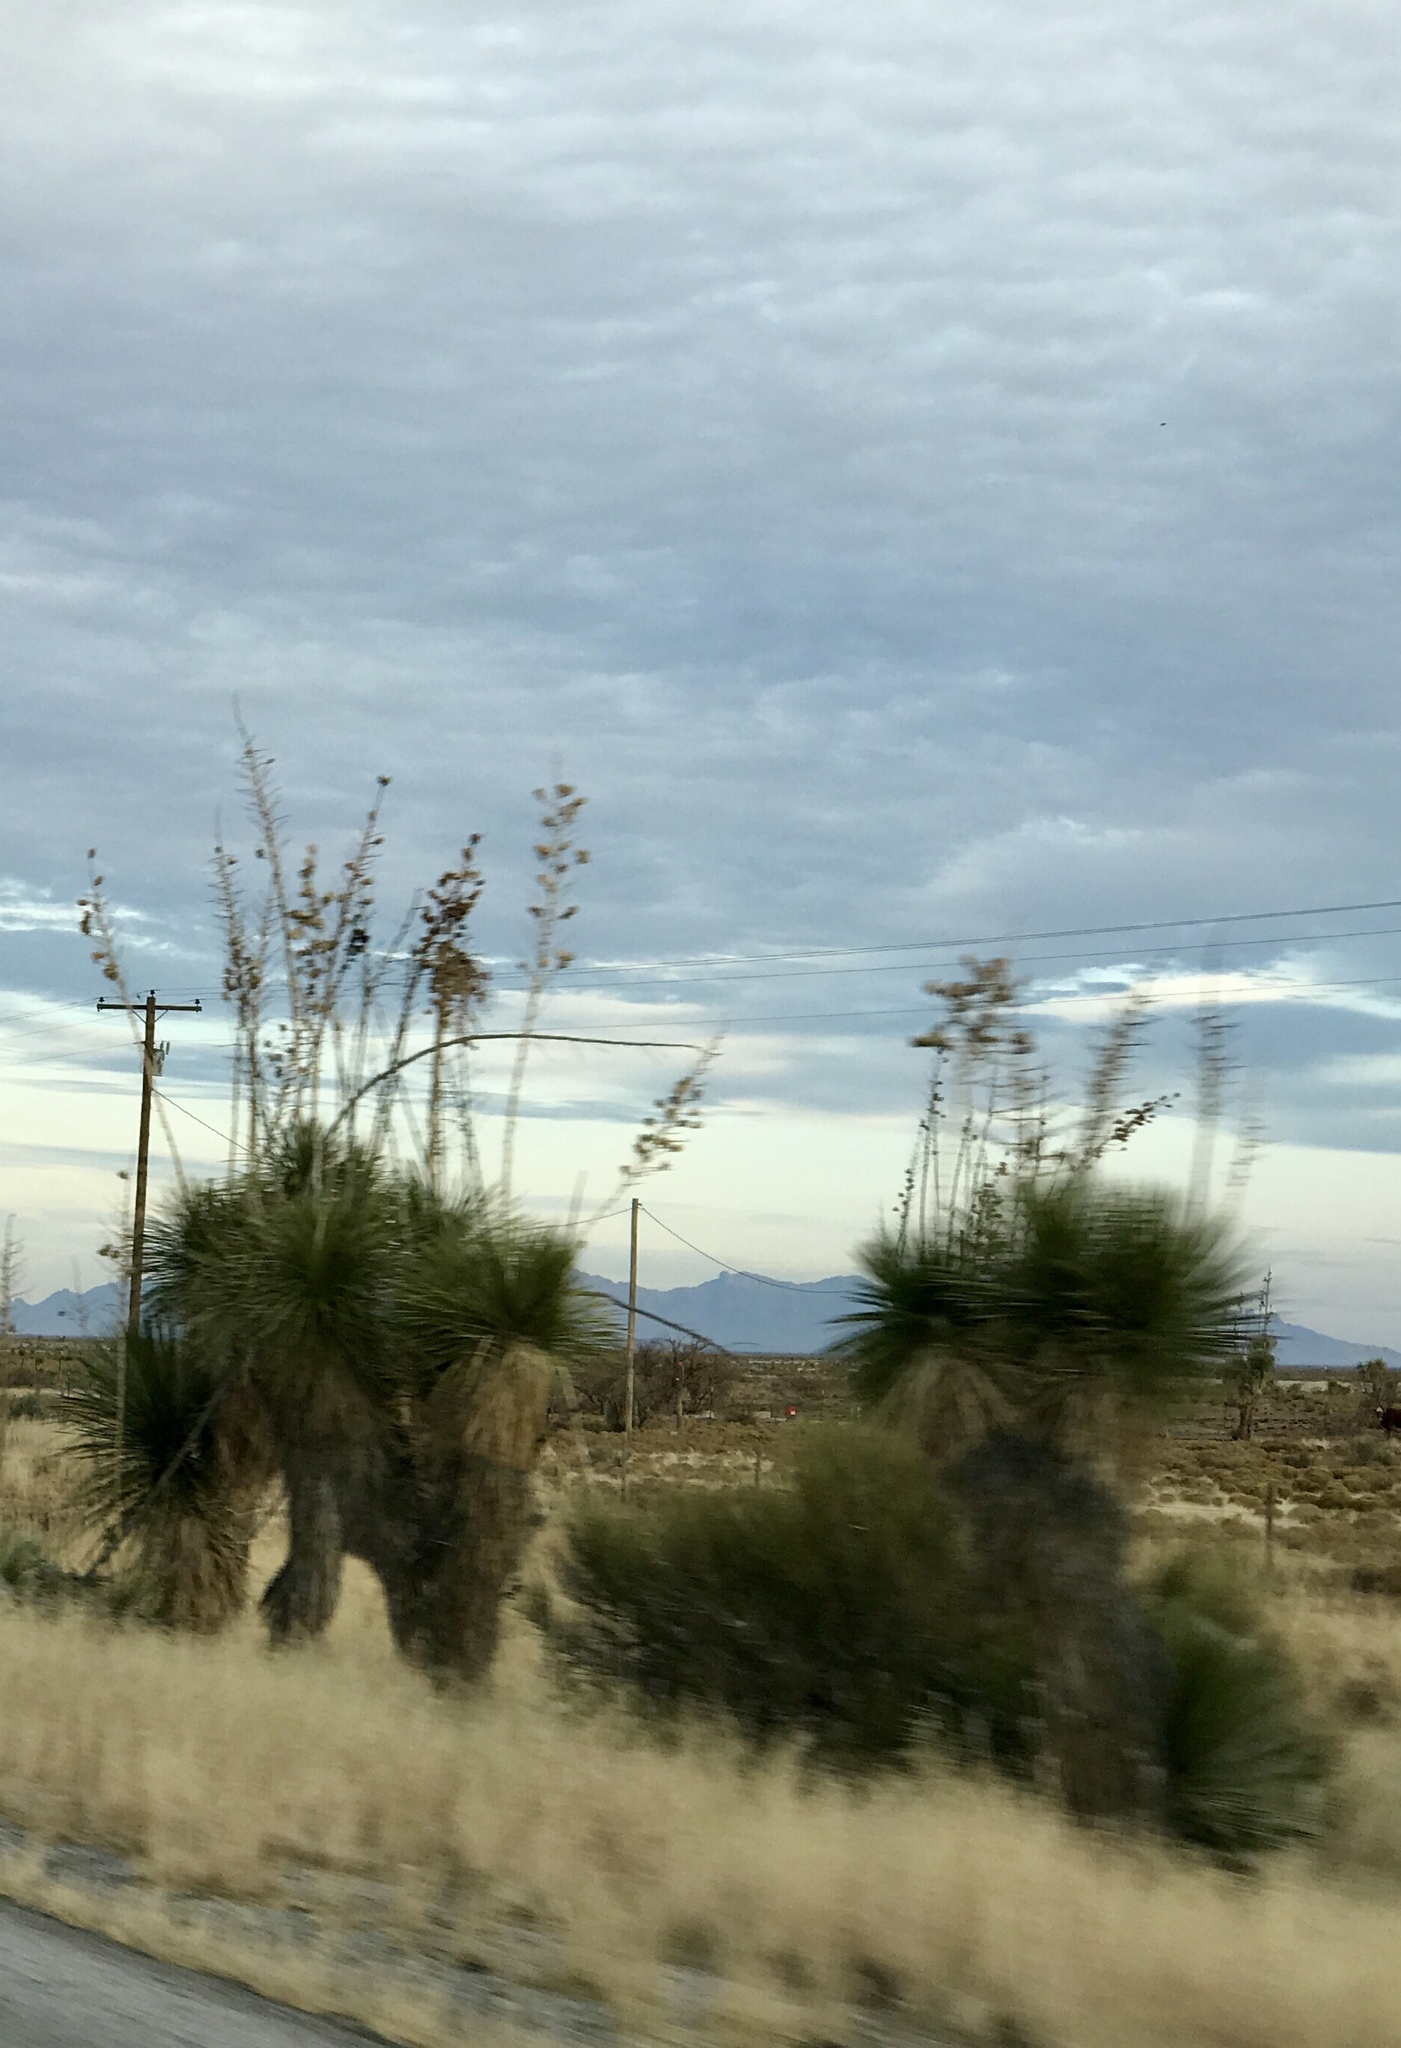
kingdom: Plantae
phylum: Tracheophyta
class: Liliopsida
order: Asparagales
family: Asparagaceae
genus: Yucca
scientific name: Yucca elata
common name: Palmella
